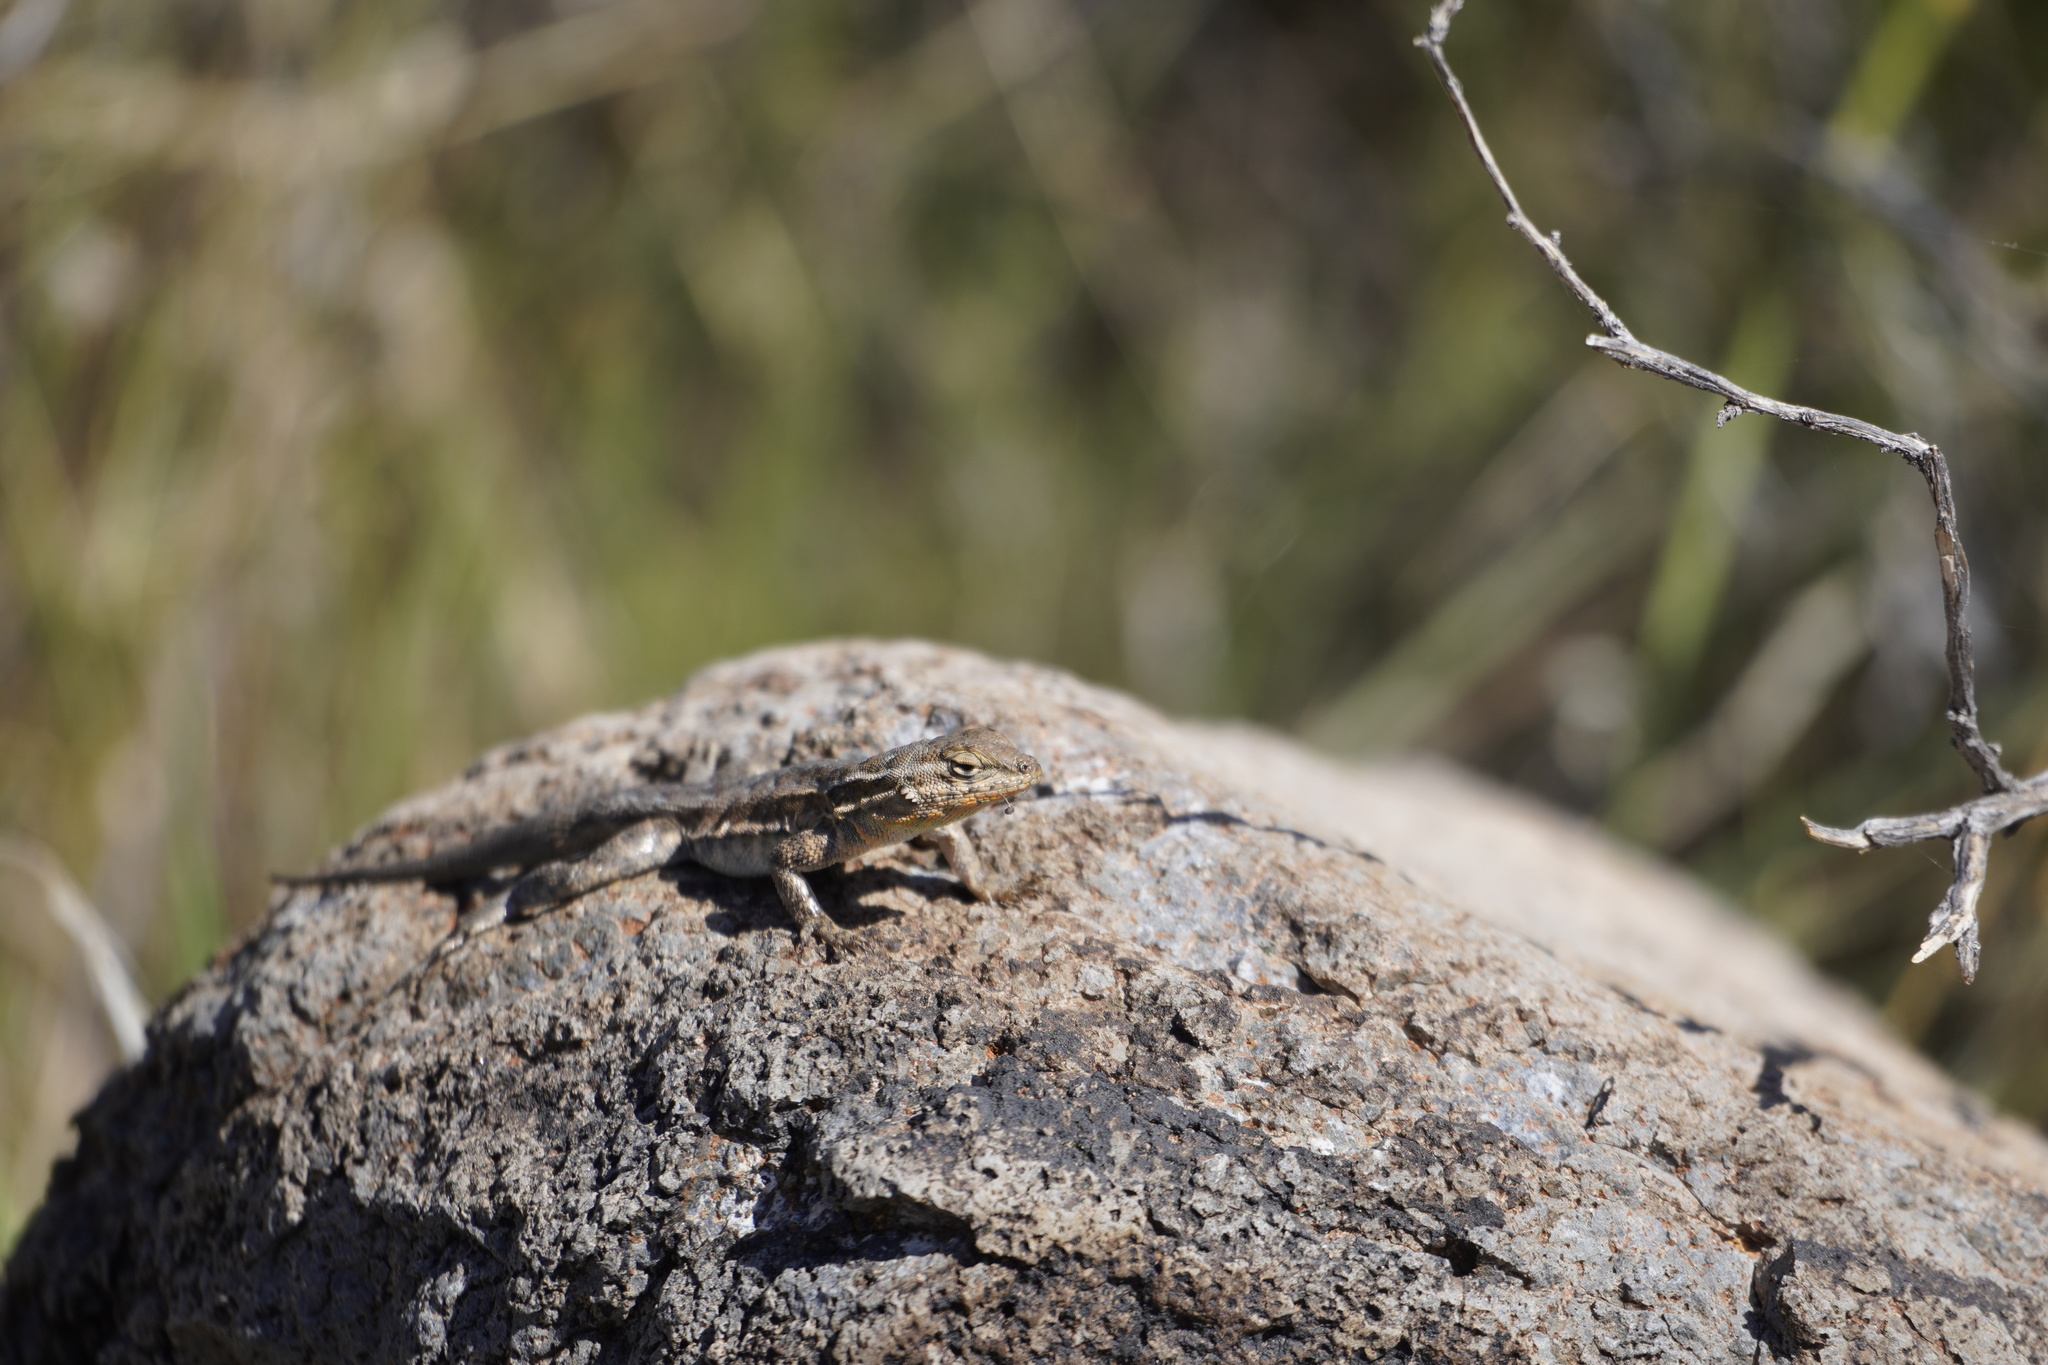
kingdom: Animalia
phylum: Chordata
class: Squamata
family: Phrynosomatidae
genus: Uta
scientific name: Uta stansburiana
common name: Side-blotched lizard
